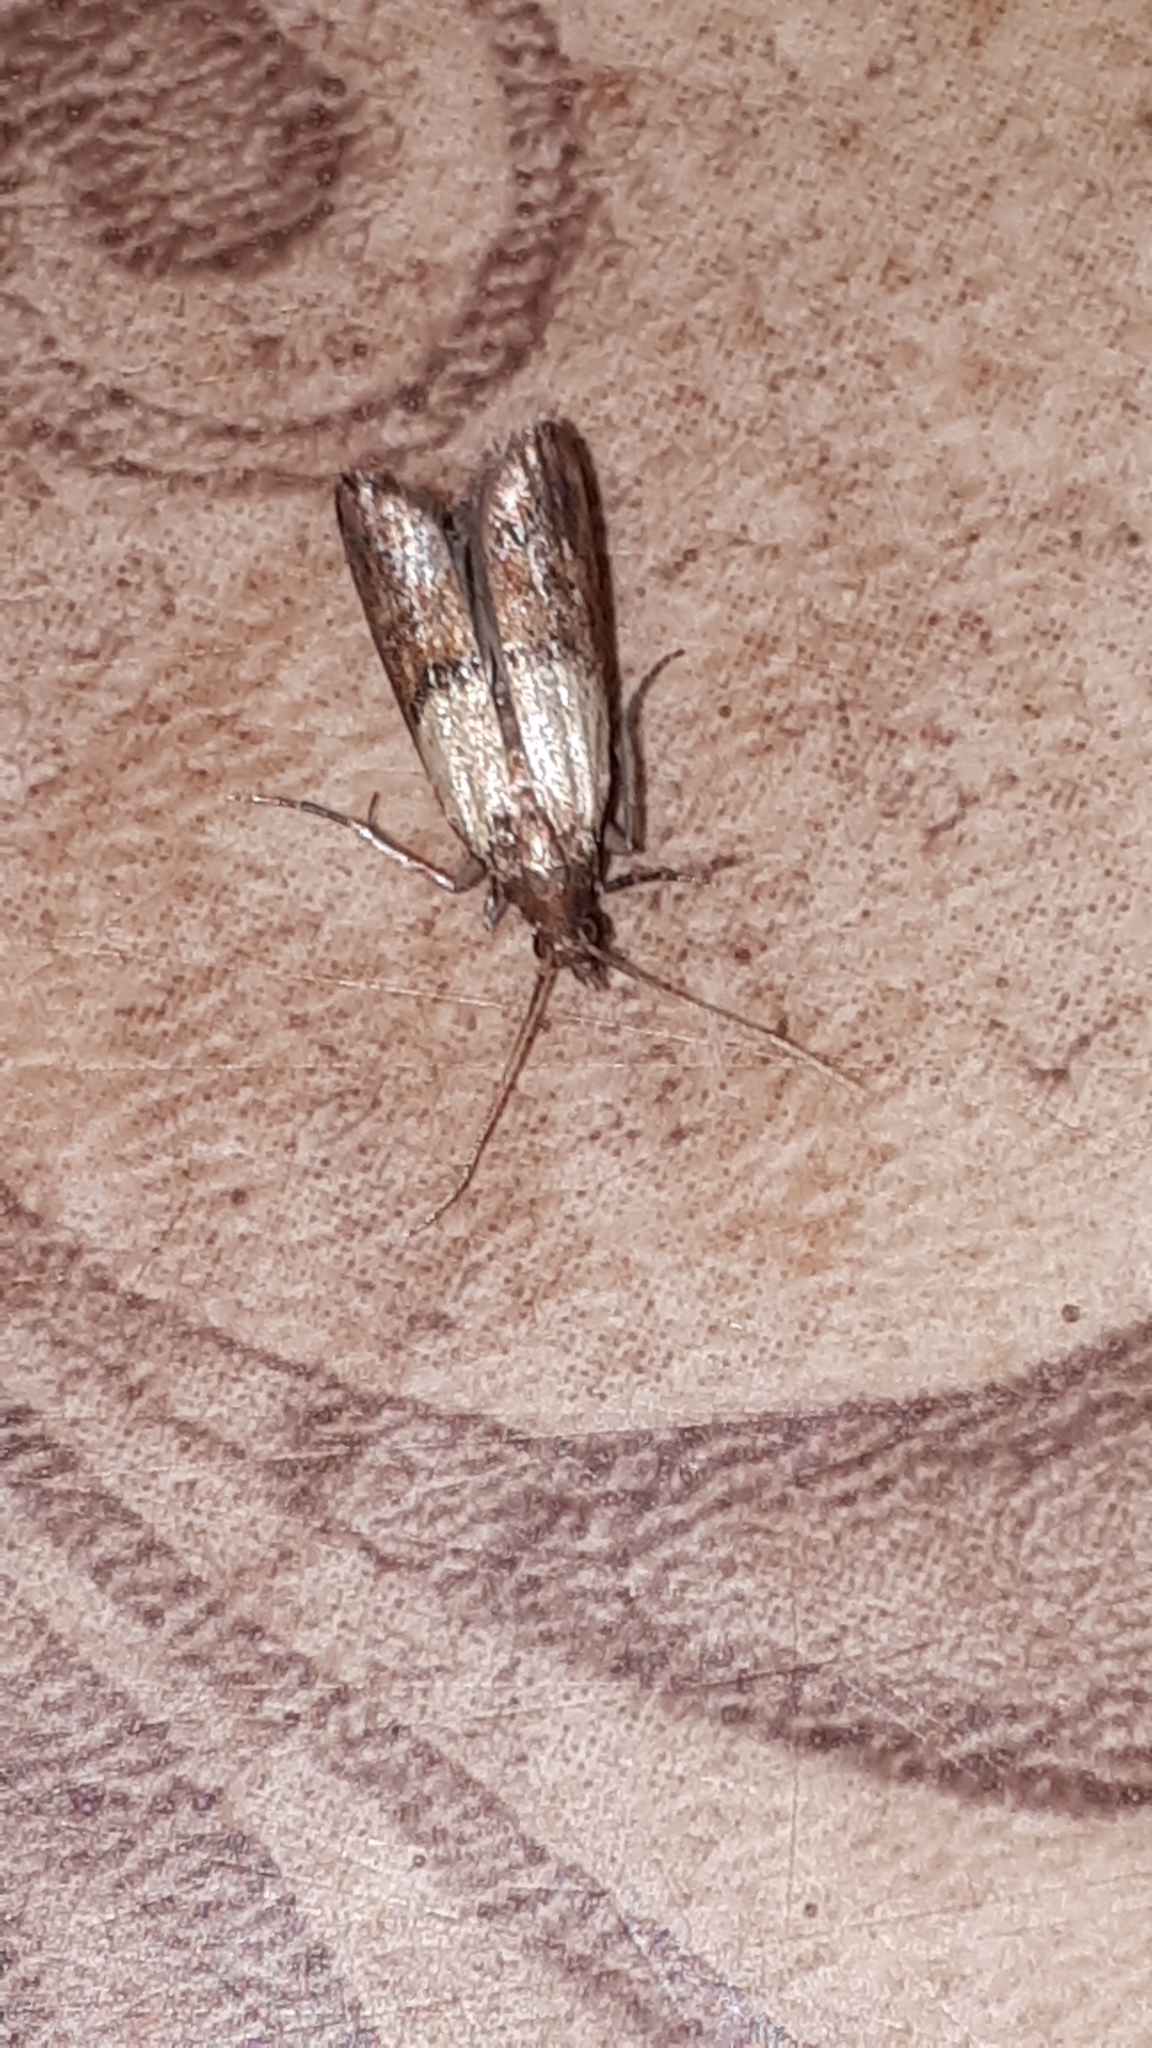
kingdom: Animalia
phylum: Arthropoda
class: Insecta
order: Lepidoptera
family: Pyralidae
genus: Plodia
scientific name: Plodia interpunctella
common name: Indian meal moth
